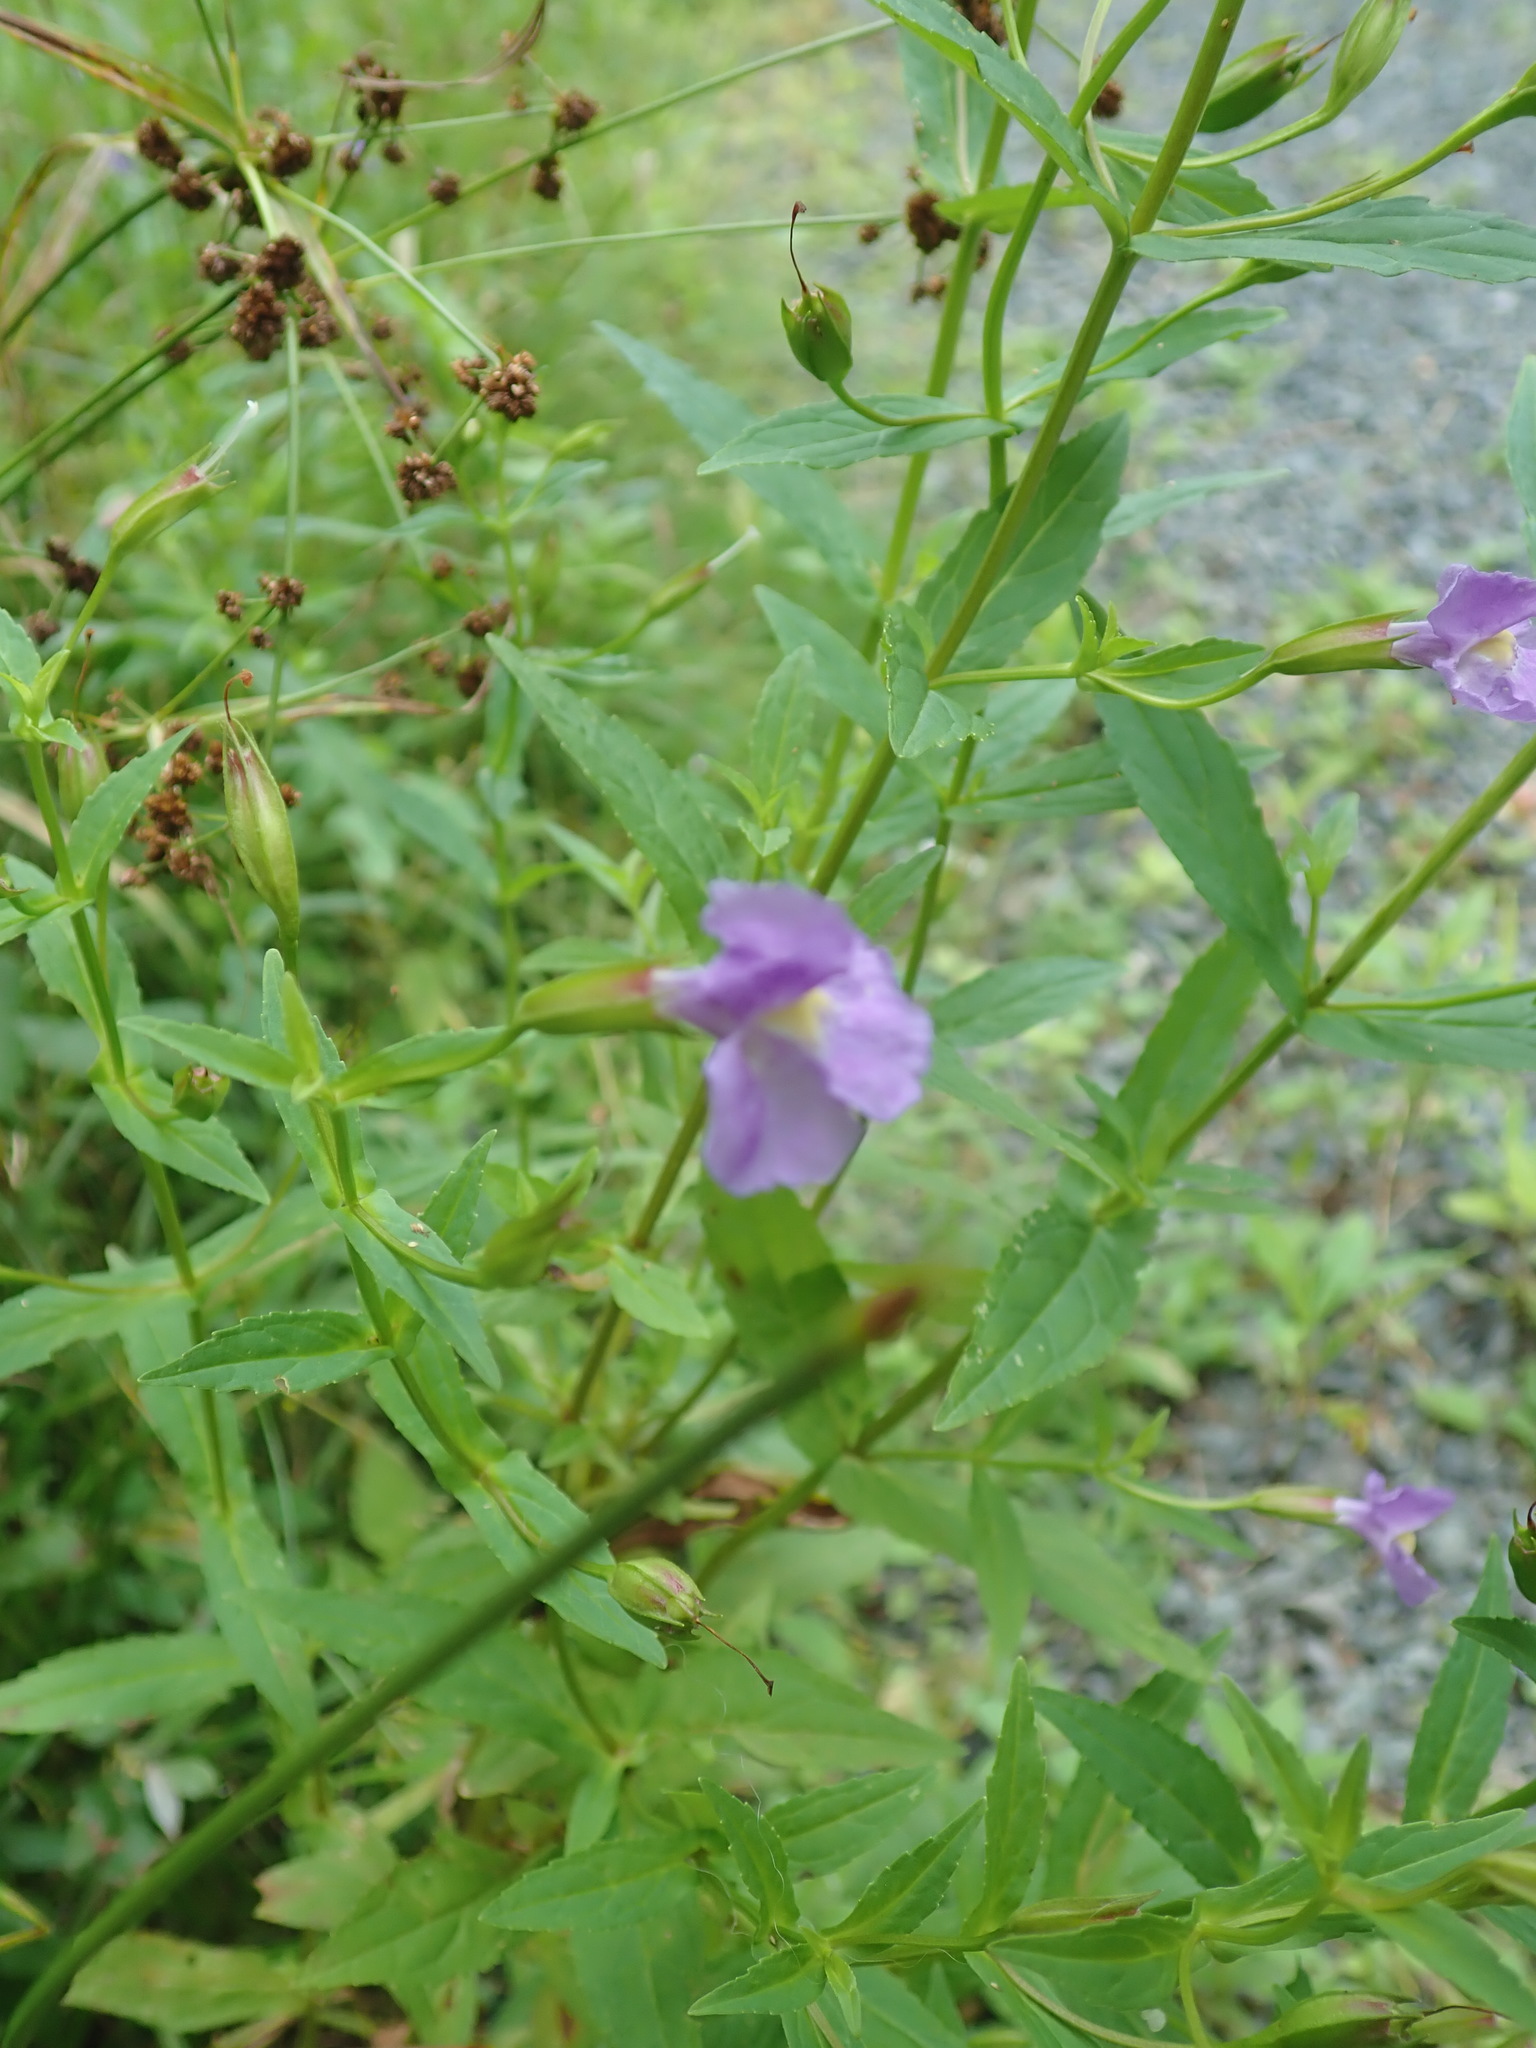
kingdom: Plantae
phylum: Tracheophyta
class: Magnoliopsida
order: Lamiales
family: Phrymaceae
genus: Mimulus
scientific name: Mimulus ringens
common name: Allegheny monkeyflower
